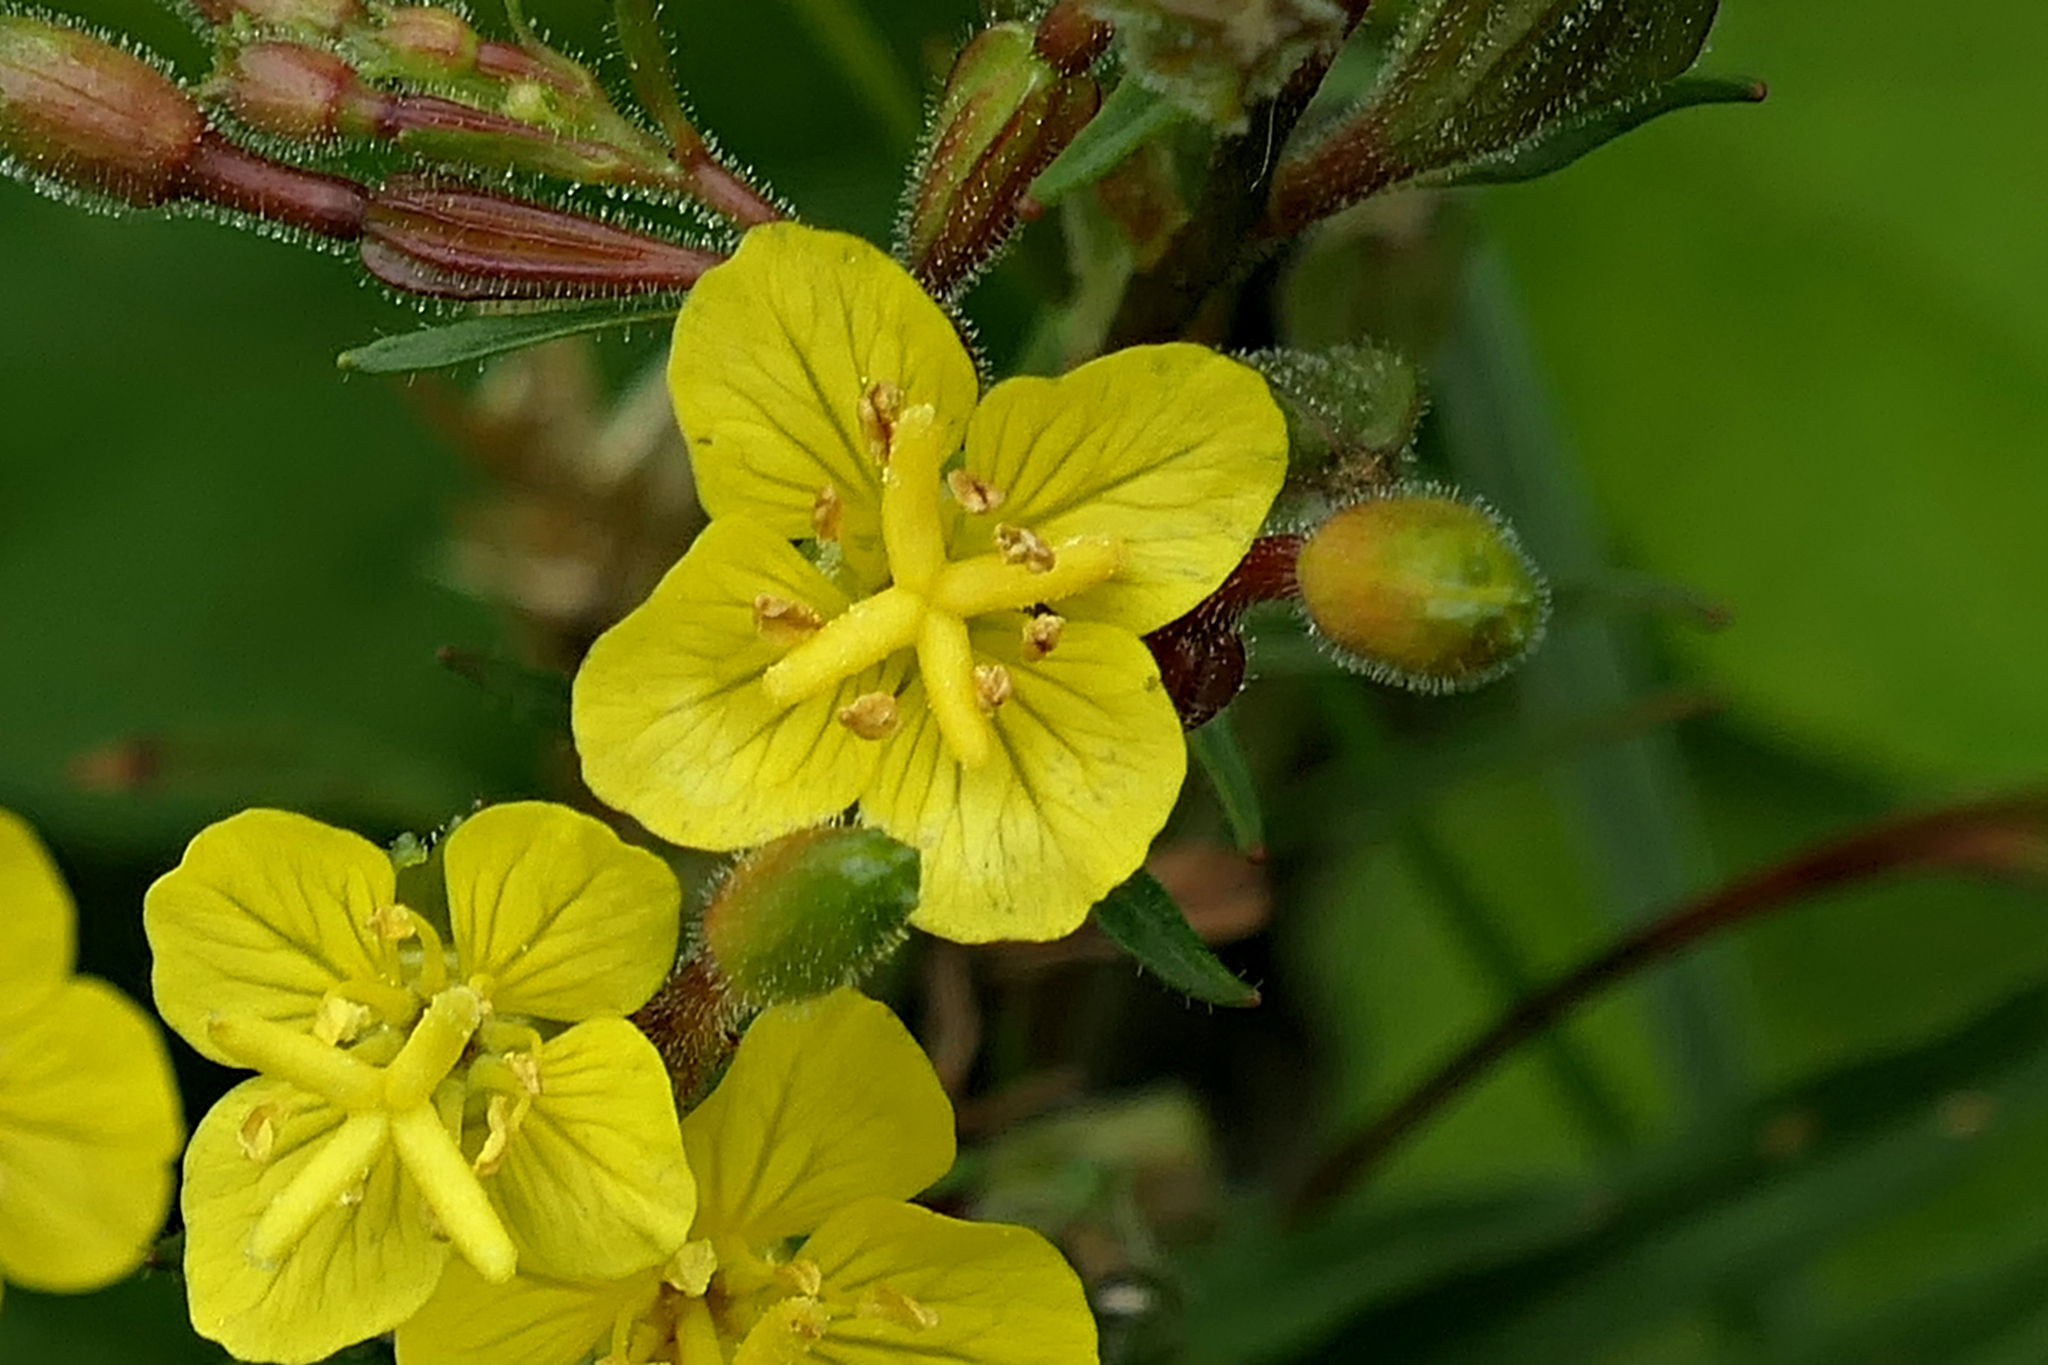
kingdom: Plantae
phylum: Tracheophyta
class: Magnoliopsida
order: Myrtales
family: Onagraceae
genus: Oenothera
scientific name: Oenothera perennis
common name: Small sundrops
